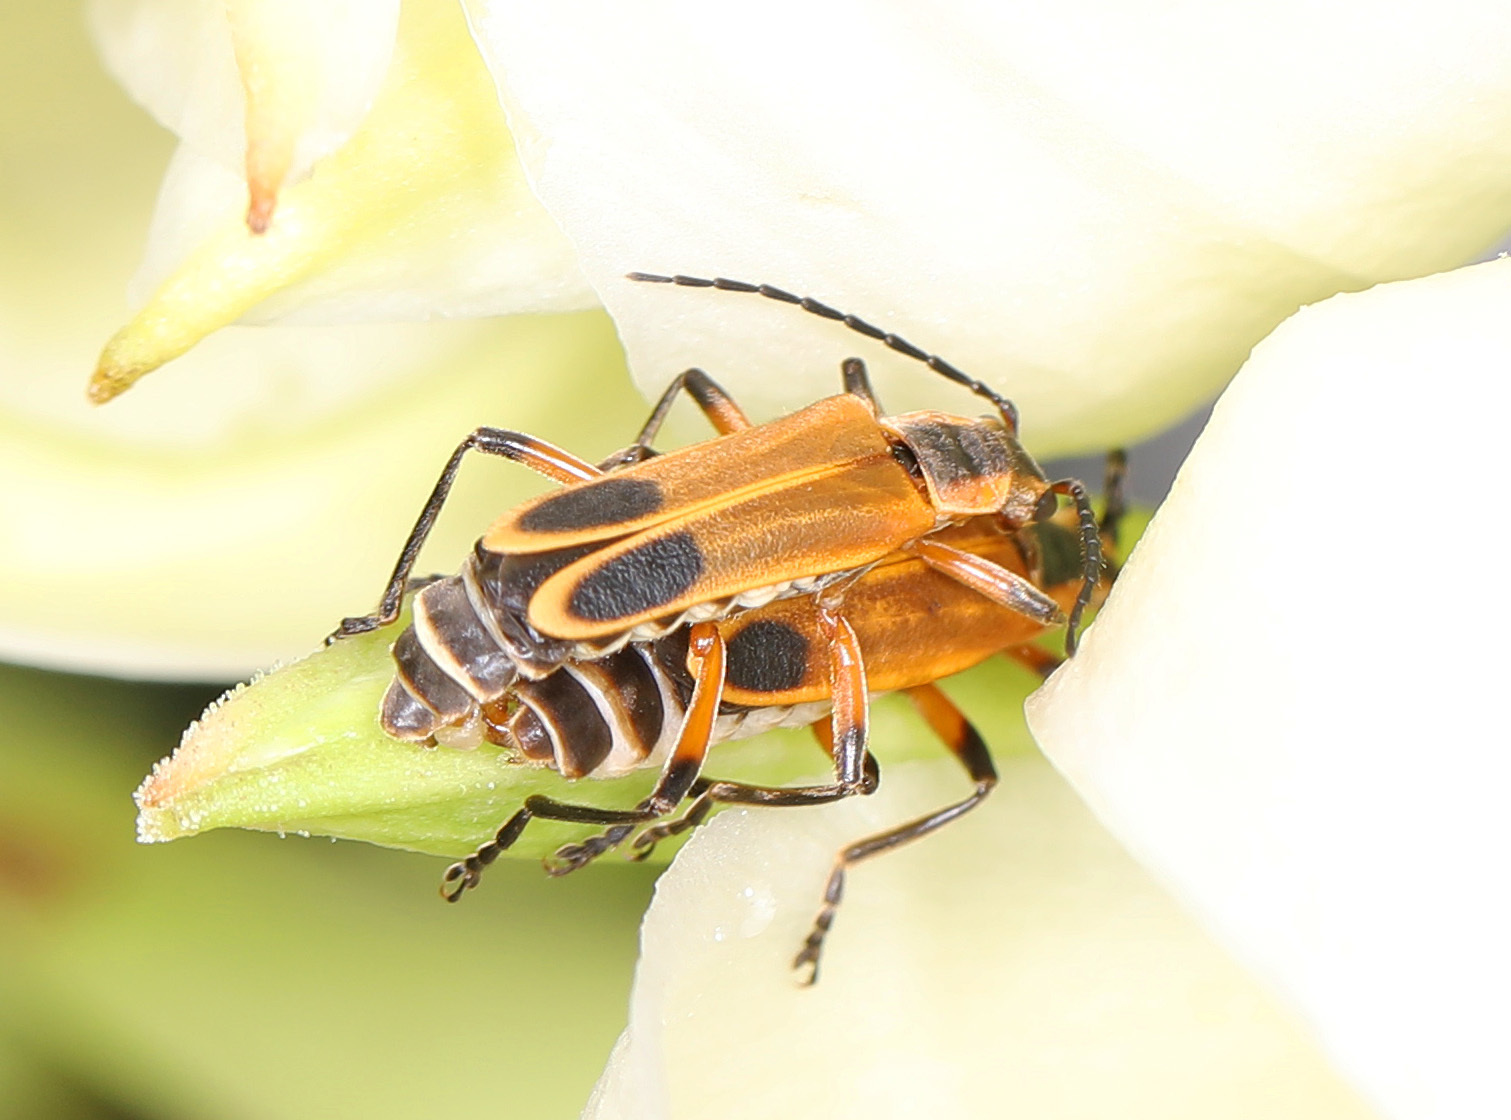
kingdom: Animalia
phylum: Arthropoda
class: Insecta
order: Coleoptera
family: Cantharidae
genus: Chauliognathus
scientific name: Chauliognathus marginatus
